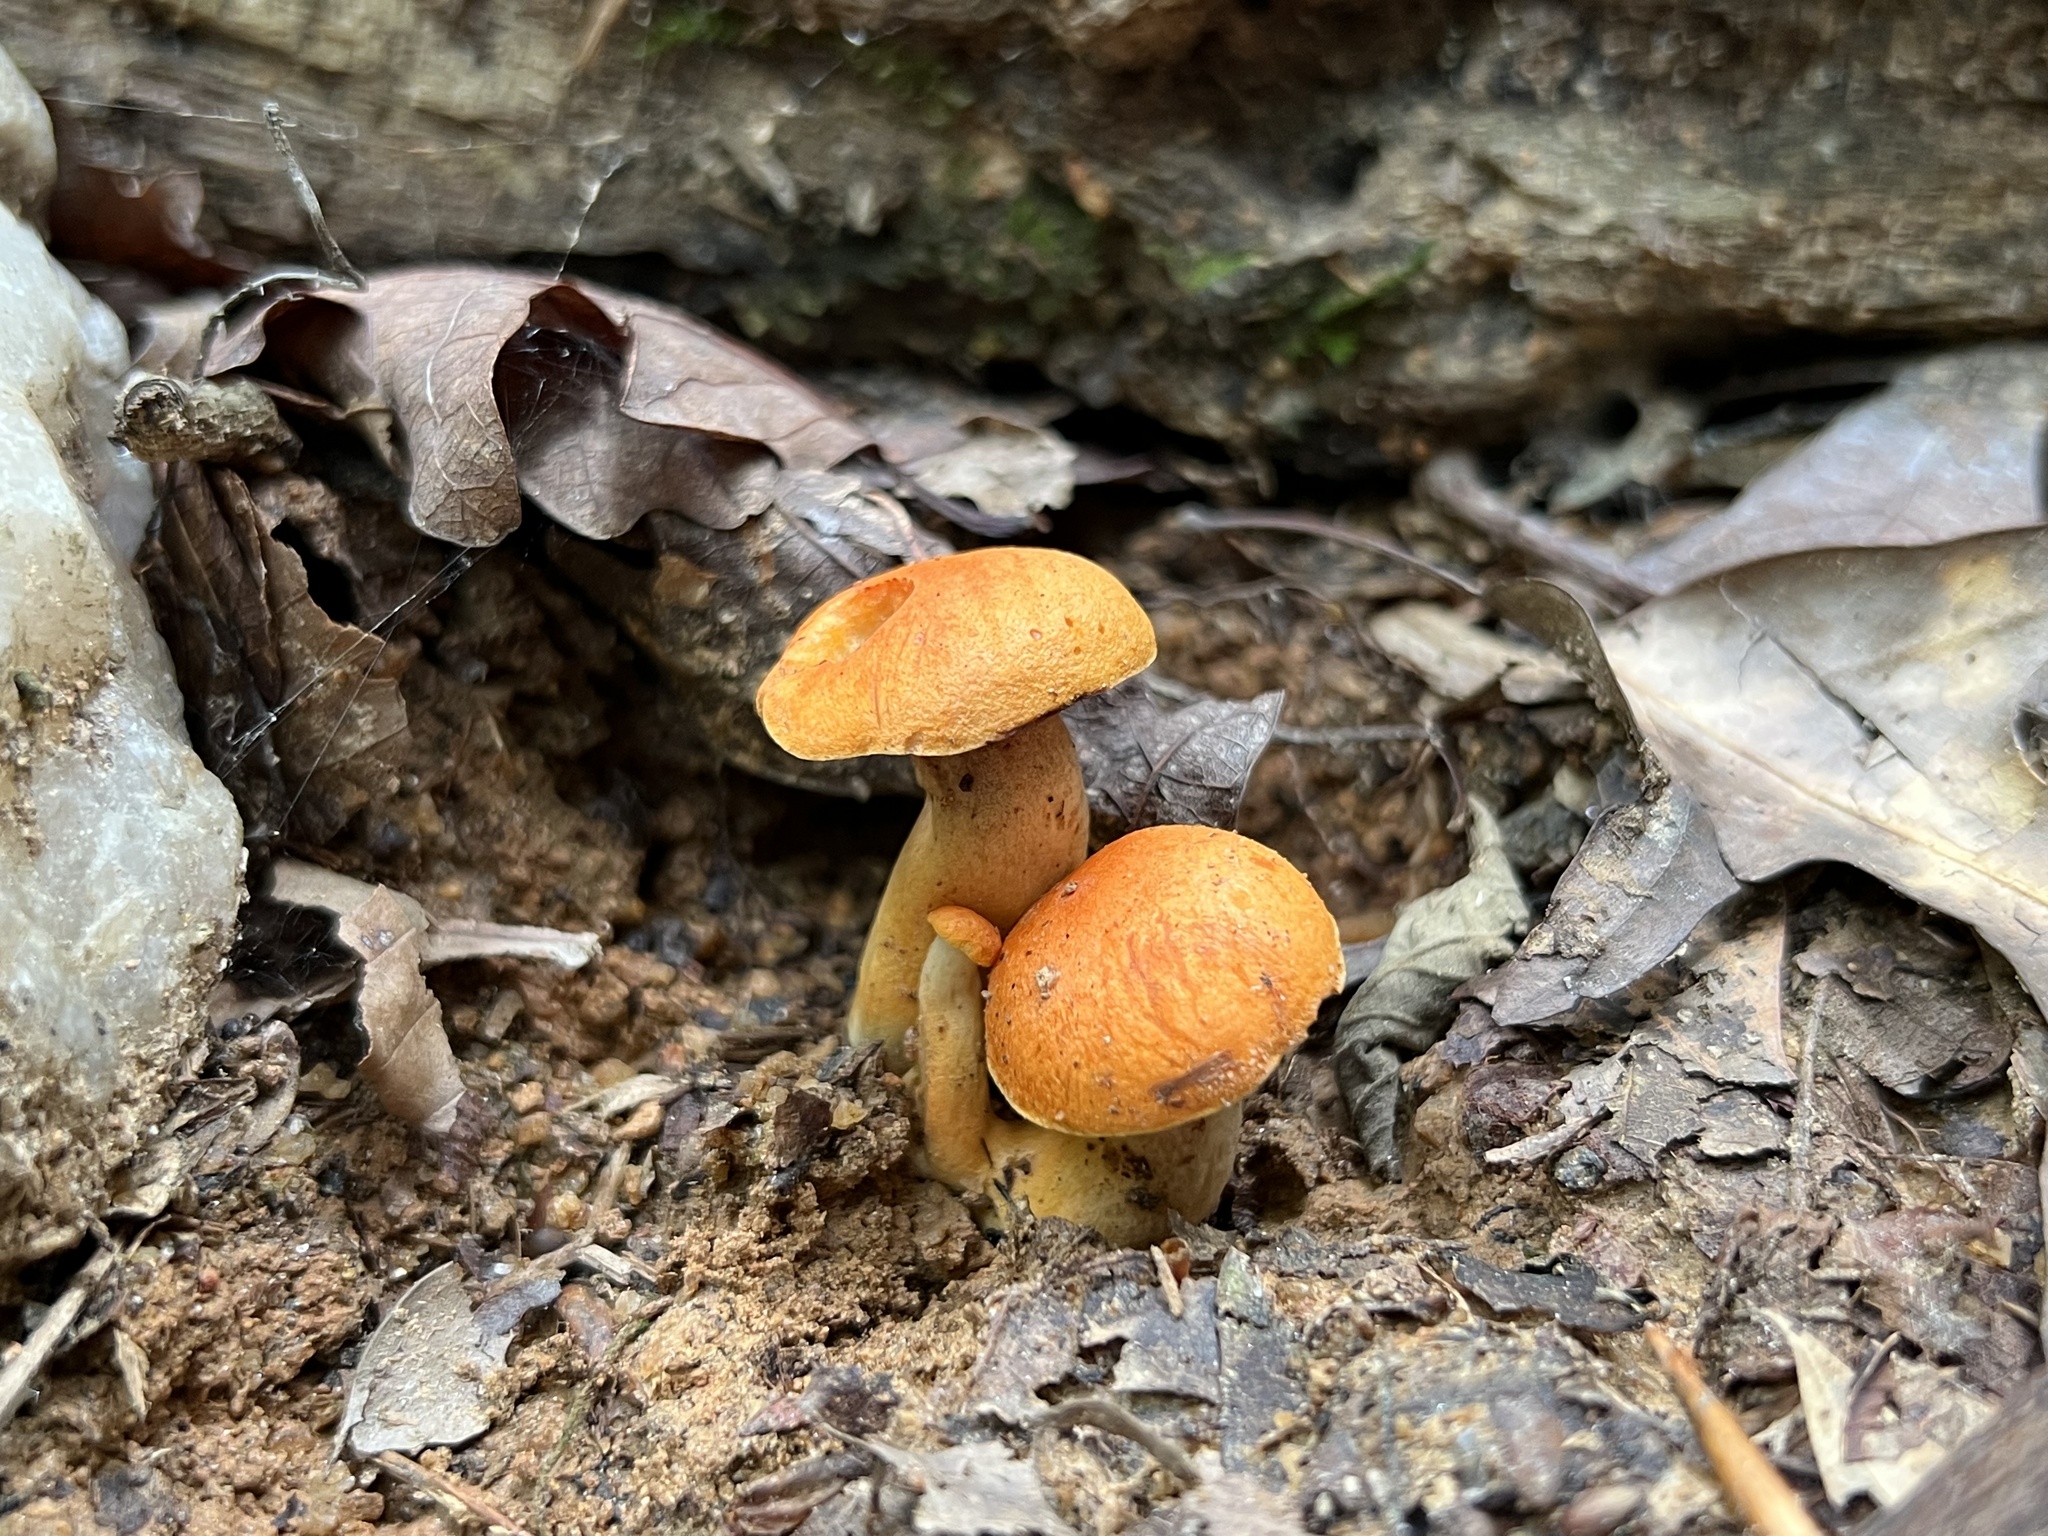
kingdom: Fungi
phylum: Basidiomycota
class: Agaricomycetes
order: Boletales
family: Boletaceae
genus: Tylopilus
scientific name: Tylopilus balloui
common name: Burnt-orange bolete
